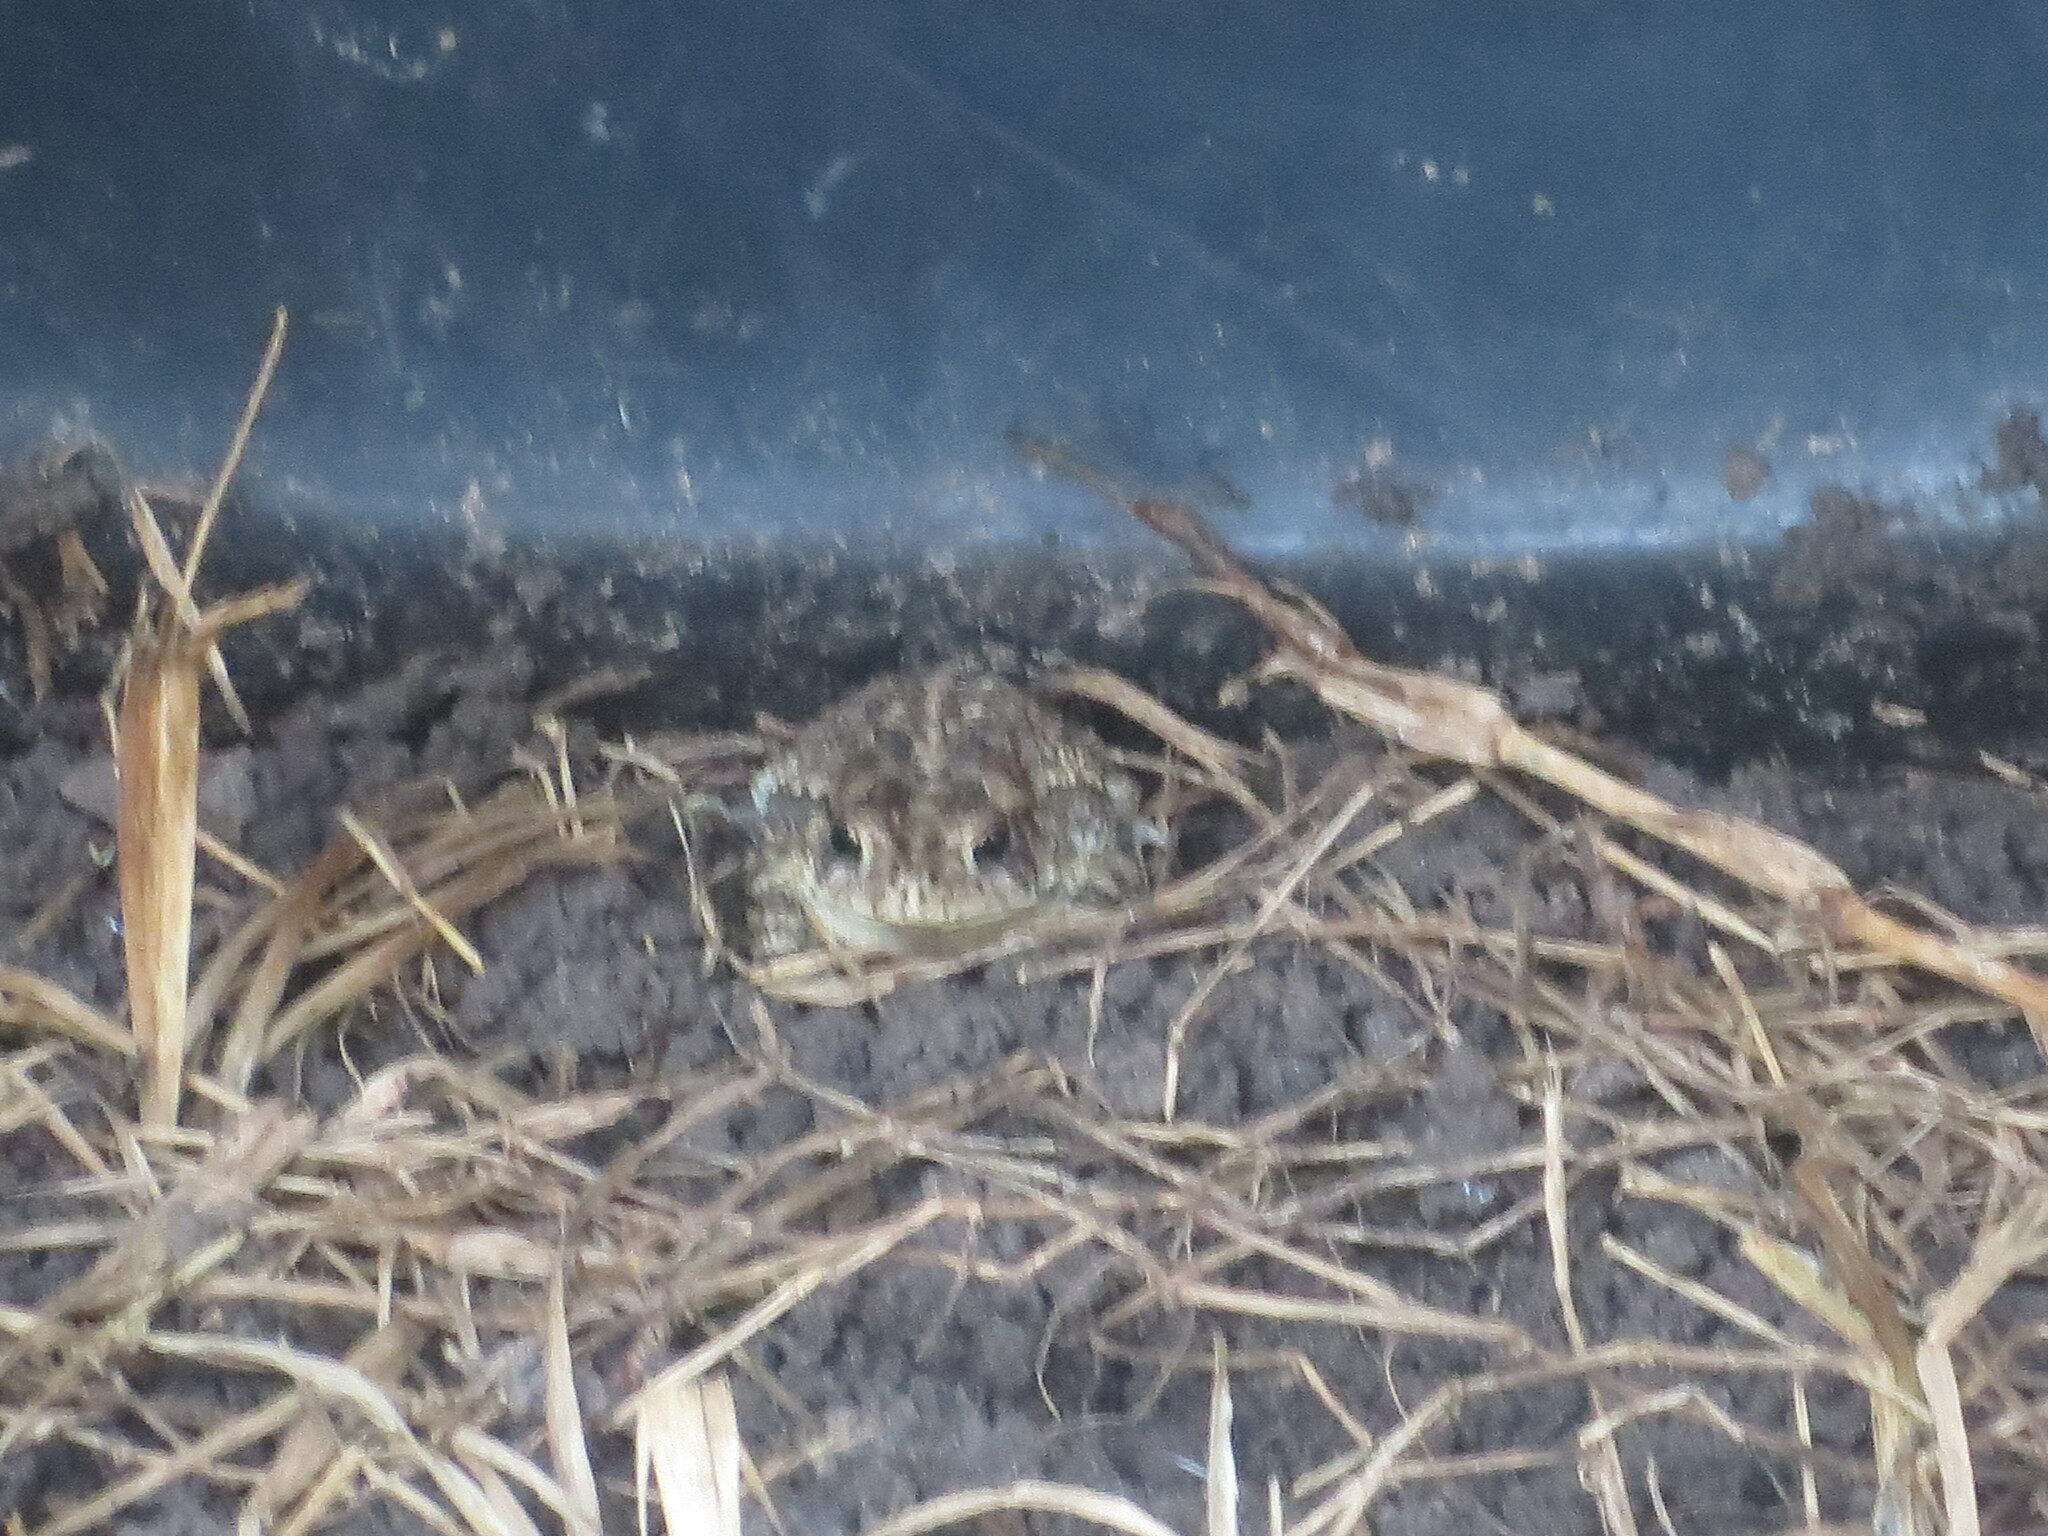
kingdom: Animalia
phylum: Chordata
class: Amphibia
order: Anura
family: Bufonidae
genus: Anaxyrus
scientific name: Anaxyrus terrestris
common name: Southern toad
